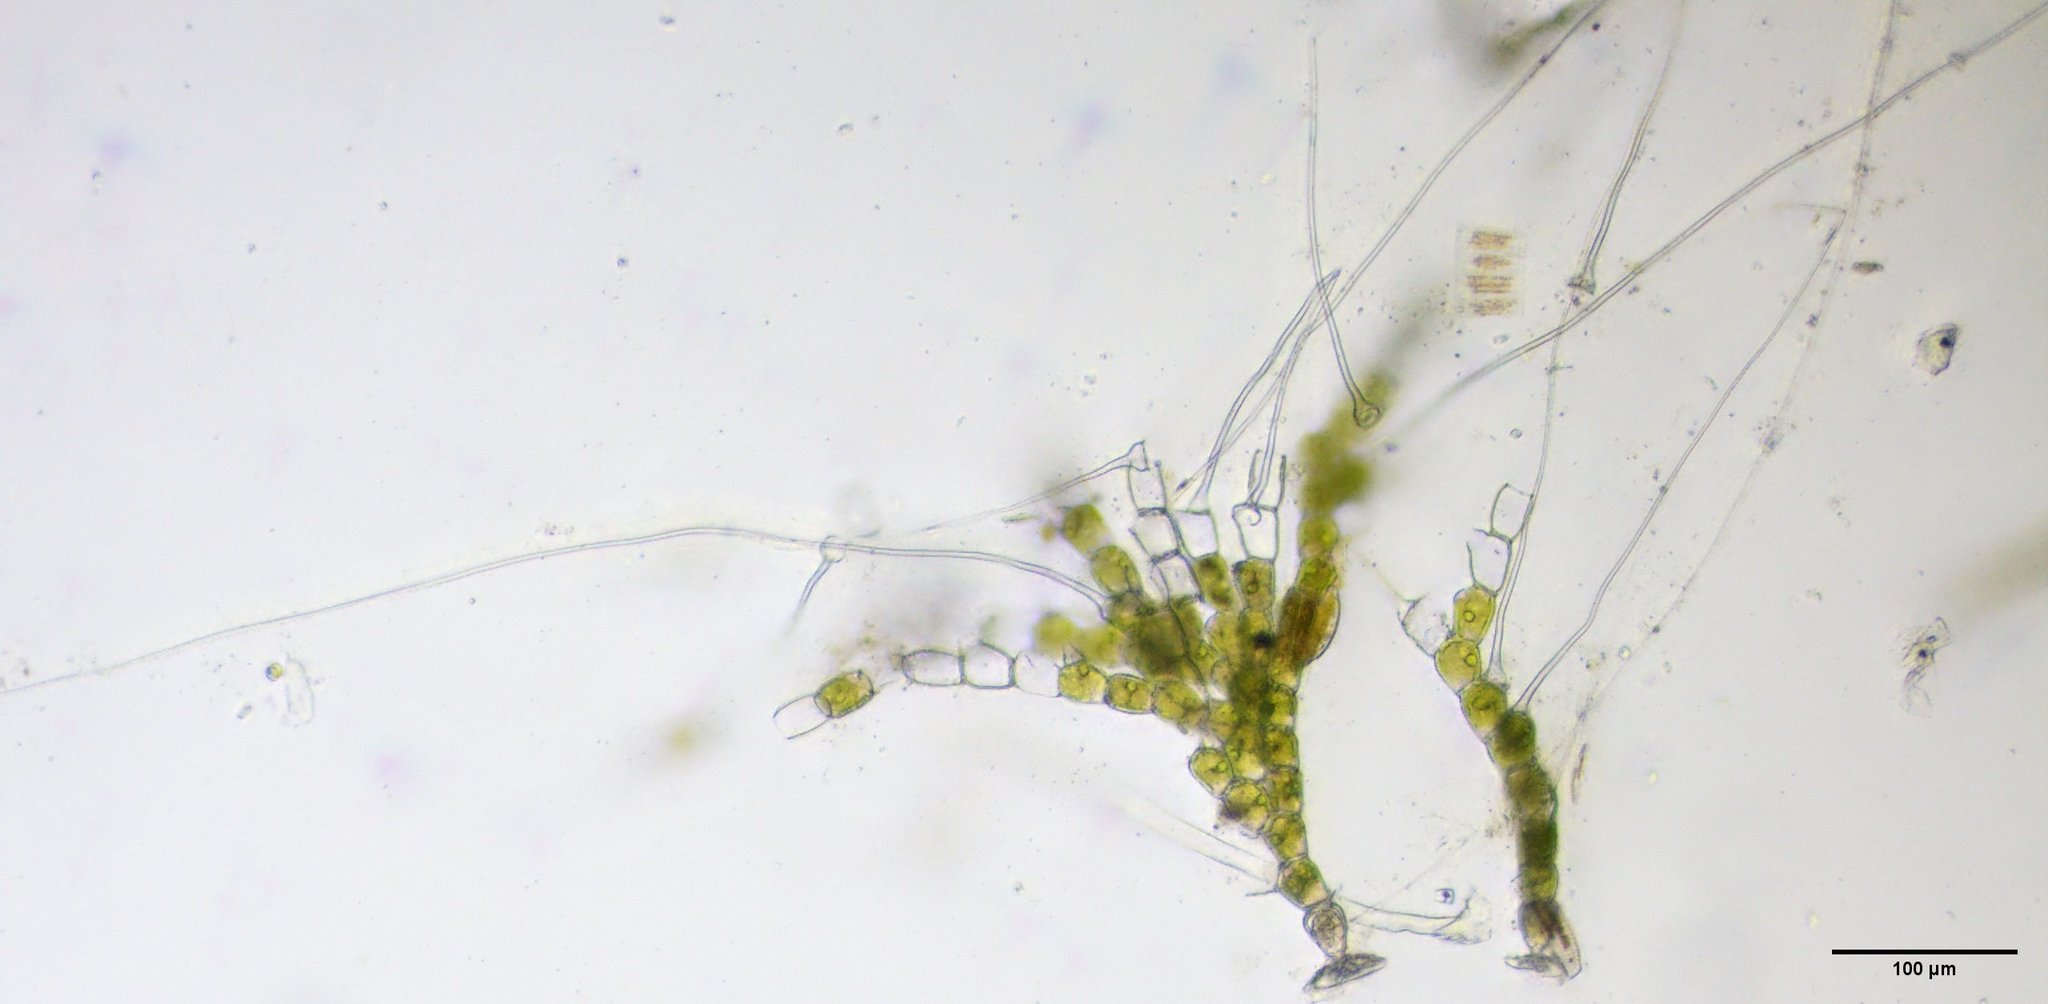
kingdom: Plantae
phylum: Chlorophyta
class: Chlorophyceae
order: Oedogoniales
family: Oedogoniaceae
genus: Bulbochaete
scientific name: Bulbochaete
